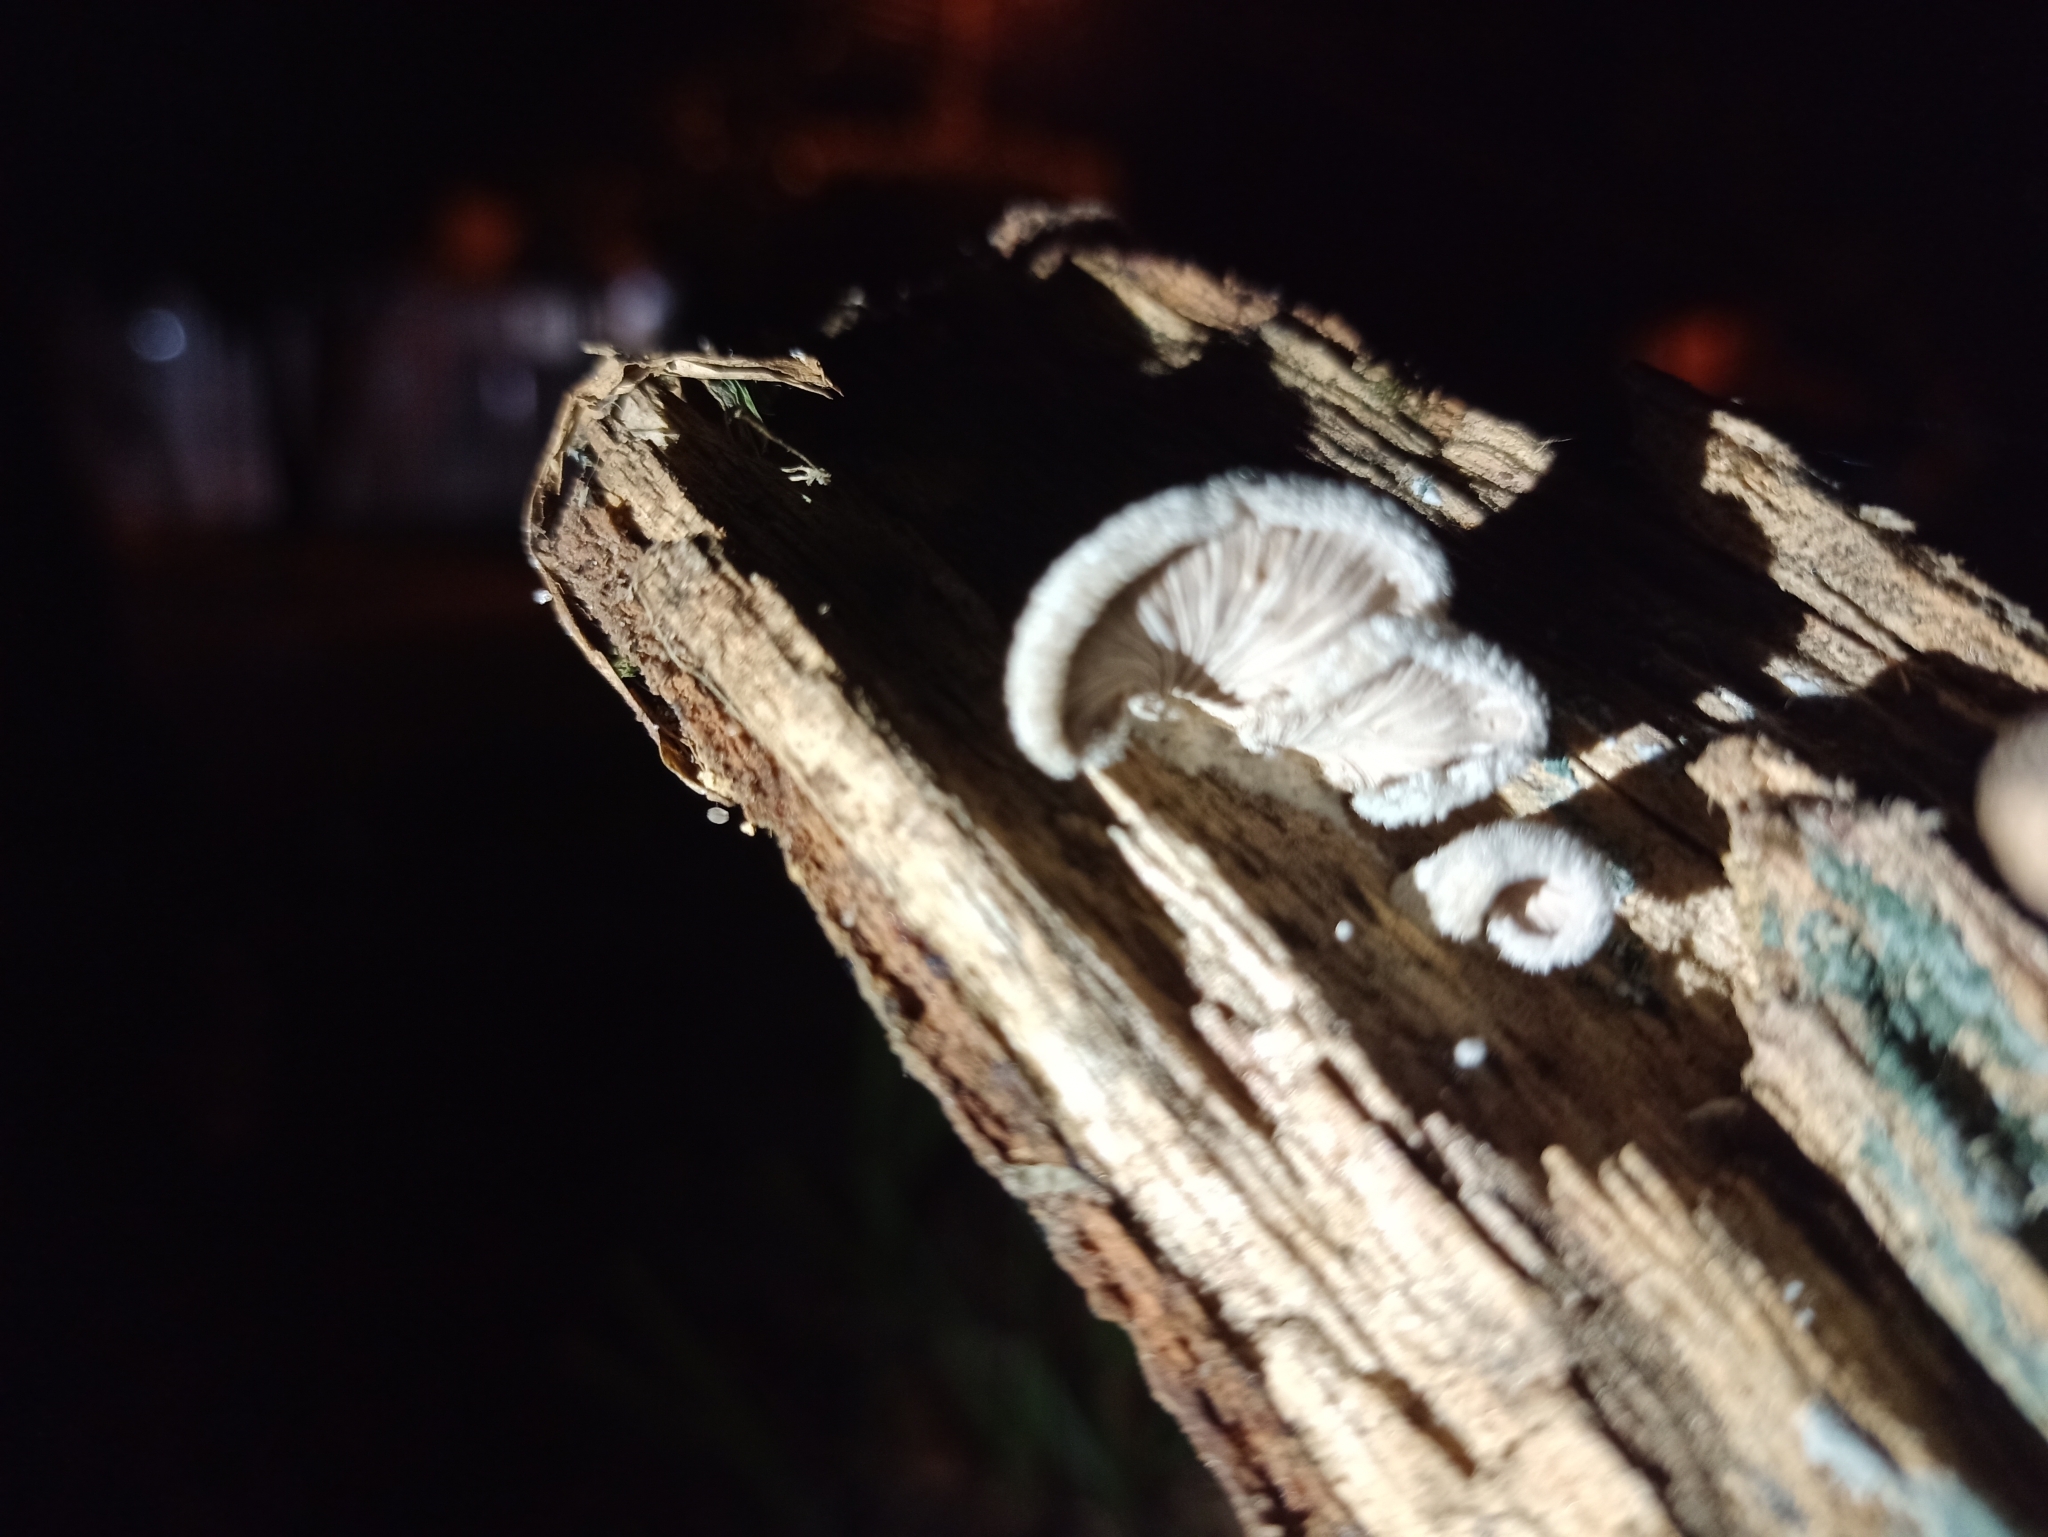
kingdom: Fungi
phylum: Basidiomycota
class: Agaricomycetes
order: Agaricales
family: Schizophyllaceae
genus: Schizophyllum
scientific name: Schizophyllum commune
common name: Common porecrust
